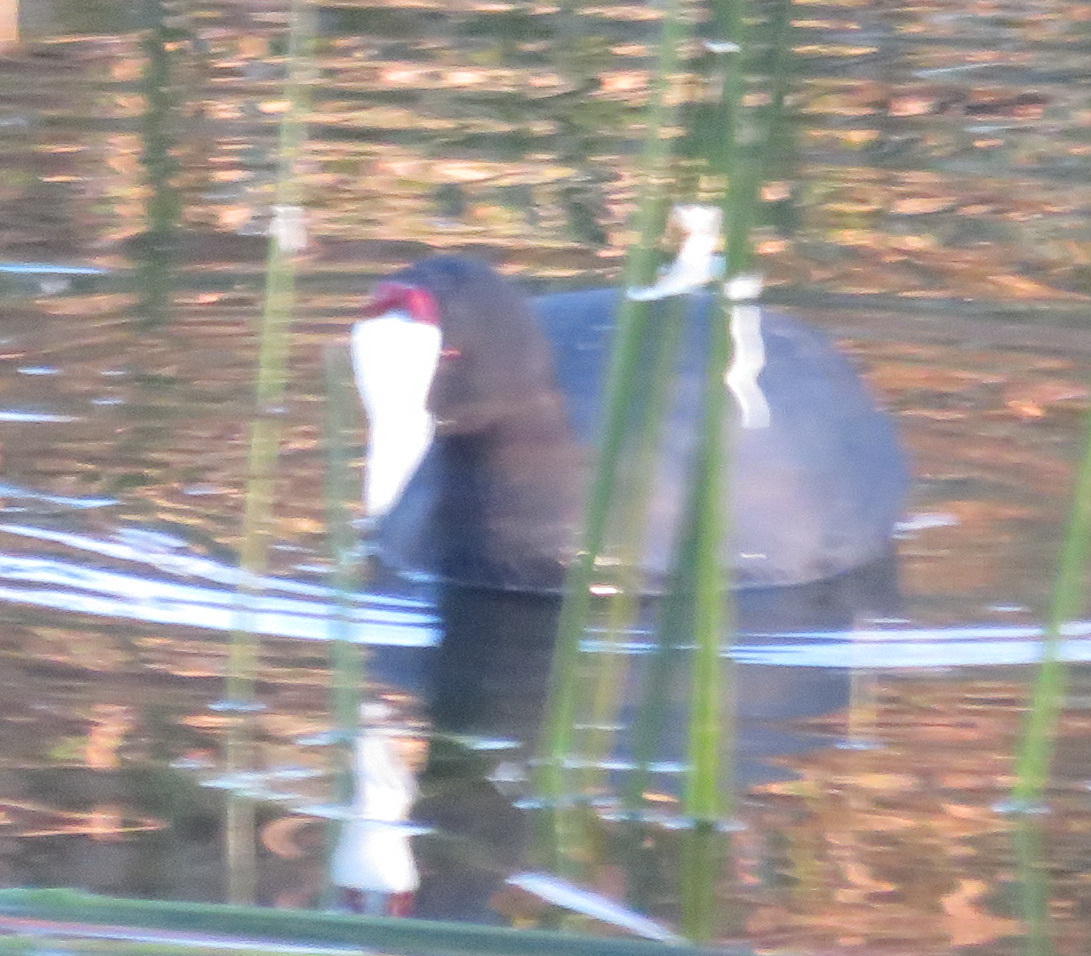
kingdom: Animalia
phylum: Chordata
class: Aves
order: Gruiformes
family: Rallidae
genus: Fulica
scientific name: Fulica cristata
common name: Red-knobbed coot
